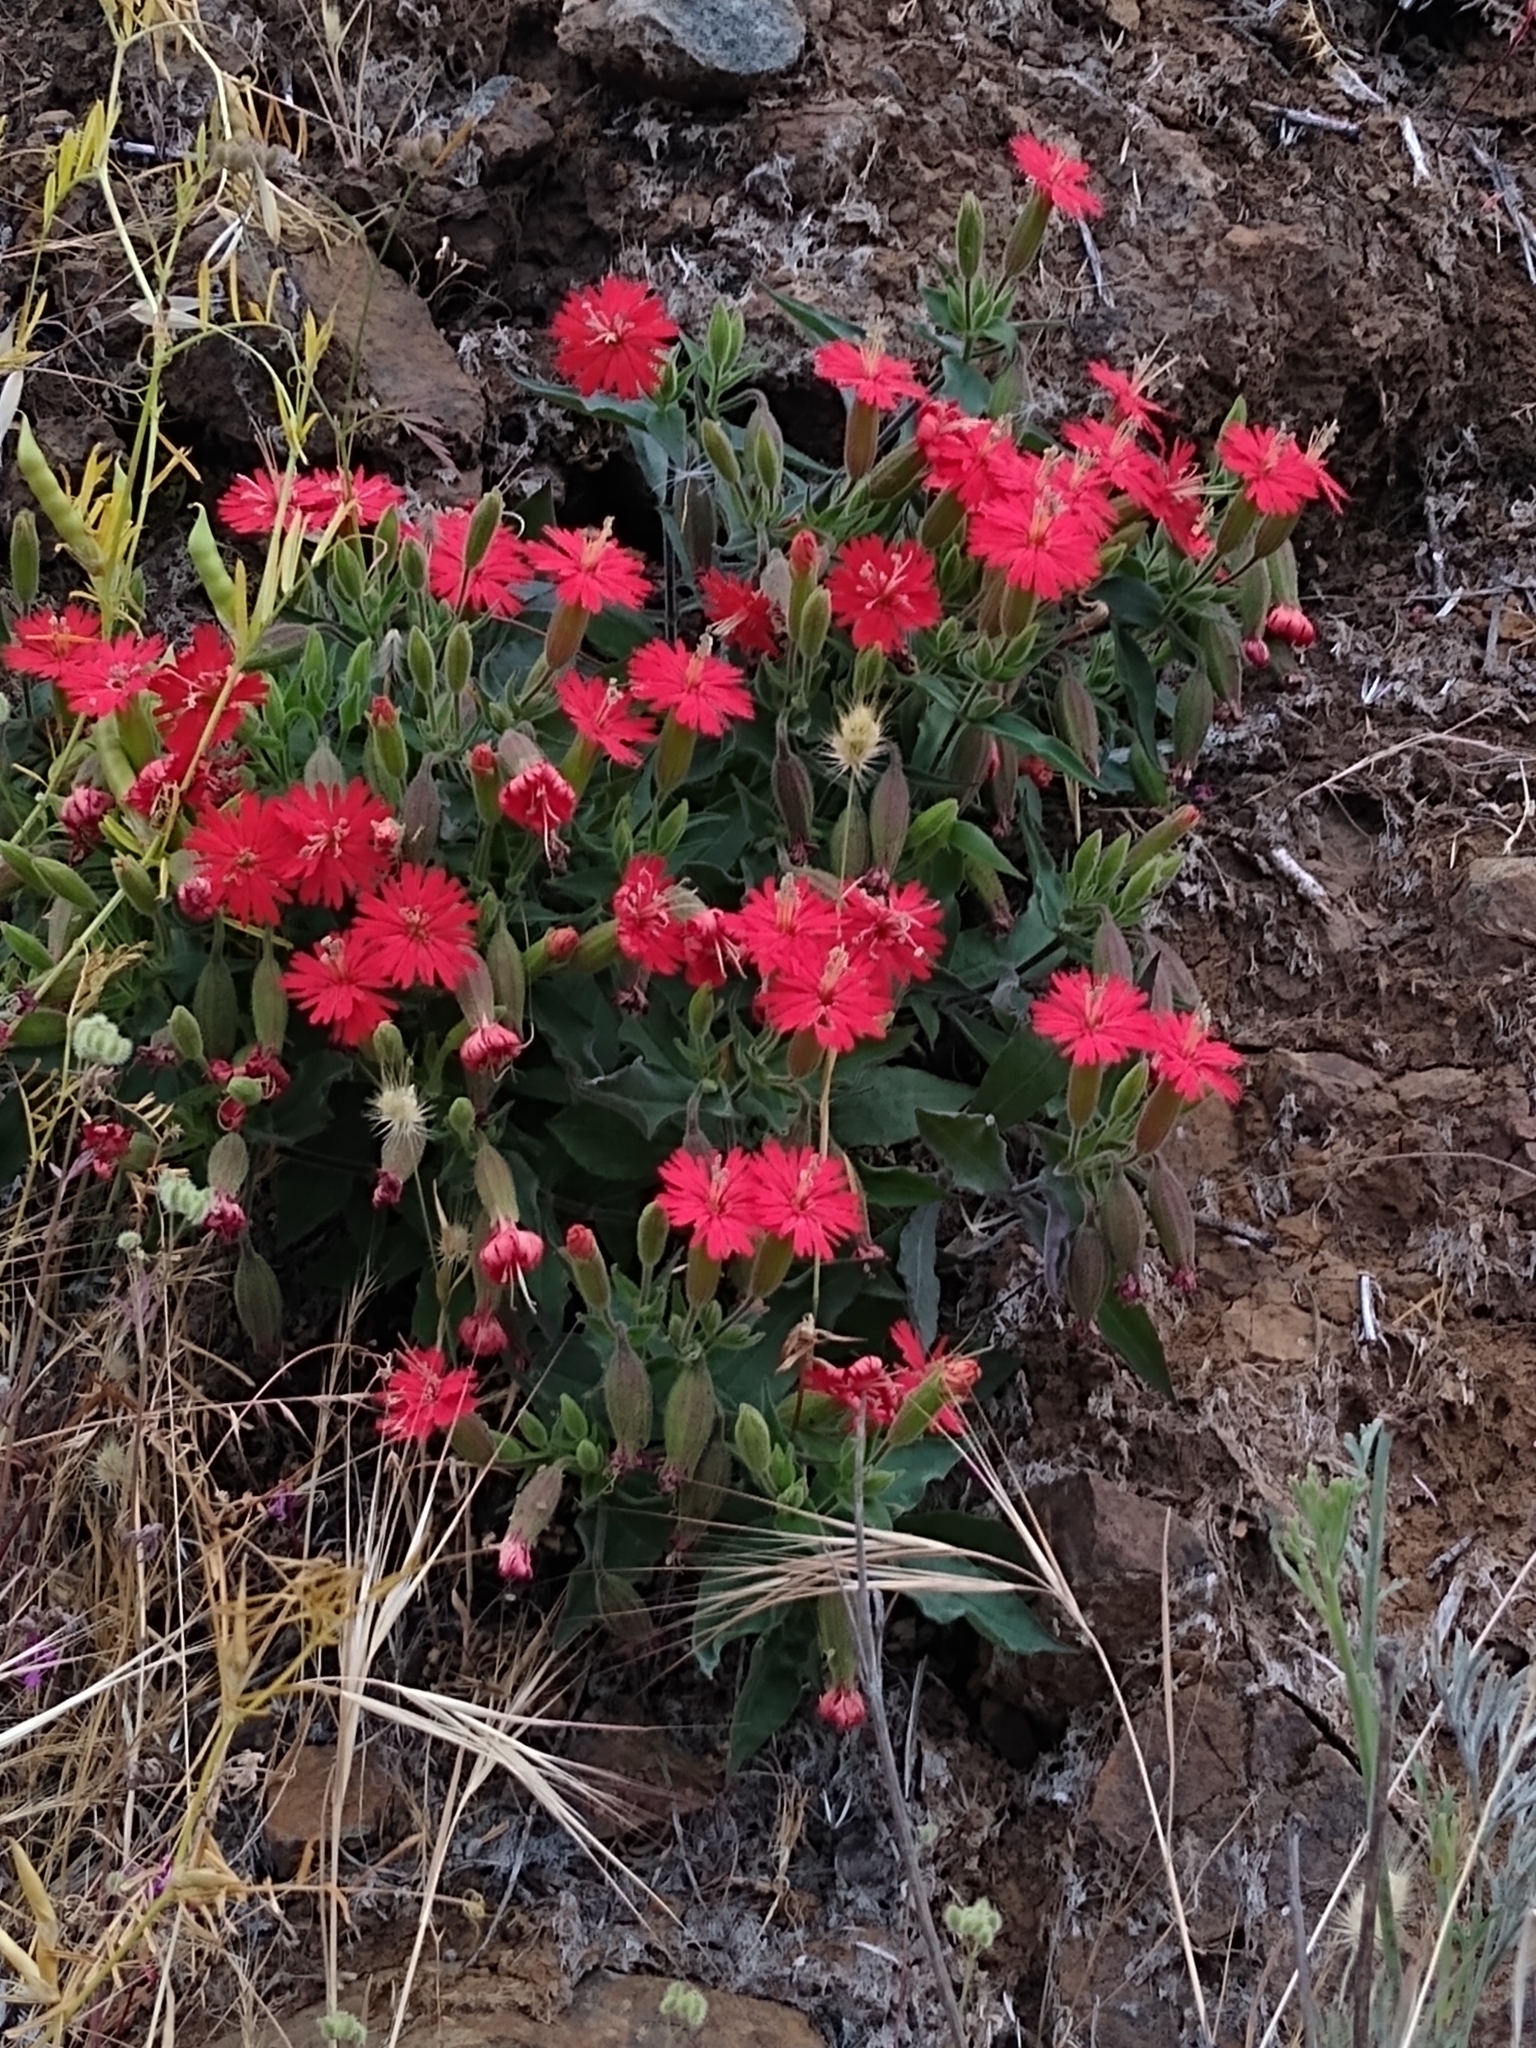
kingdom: Plantae
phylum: Tracheophyta
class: Magnoliopsida
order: Caryophyllales
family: Caryophyllaceae
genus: Silene
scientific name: Silene laciniata
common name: Indian-pink
